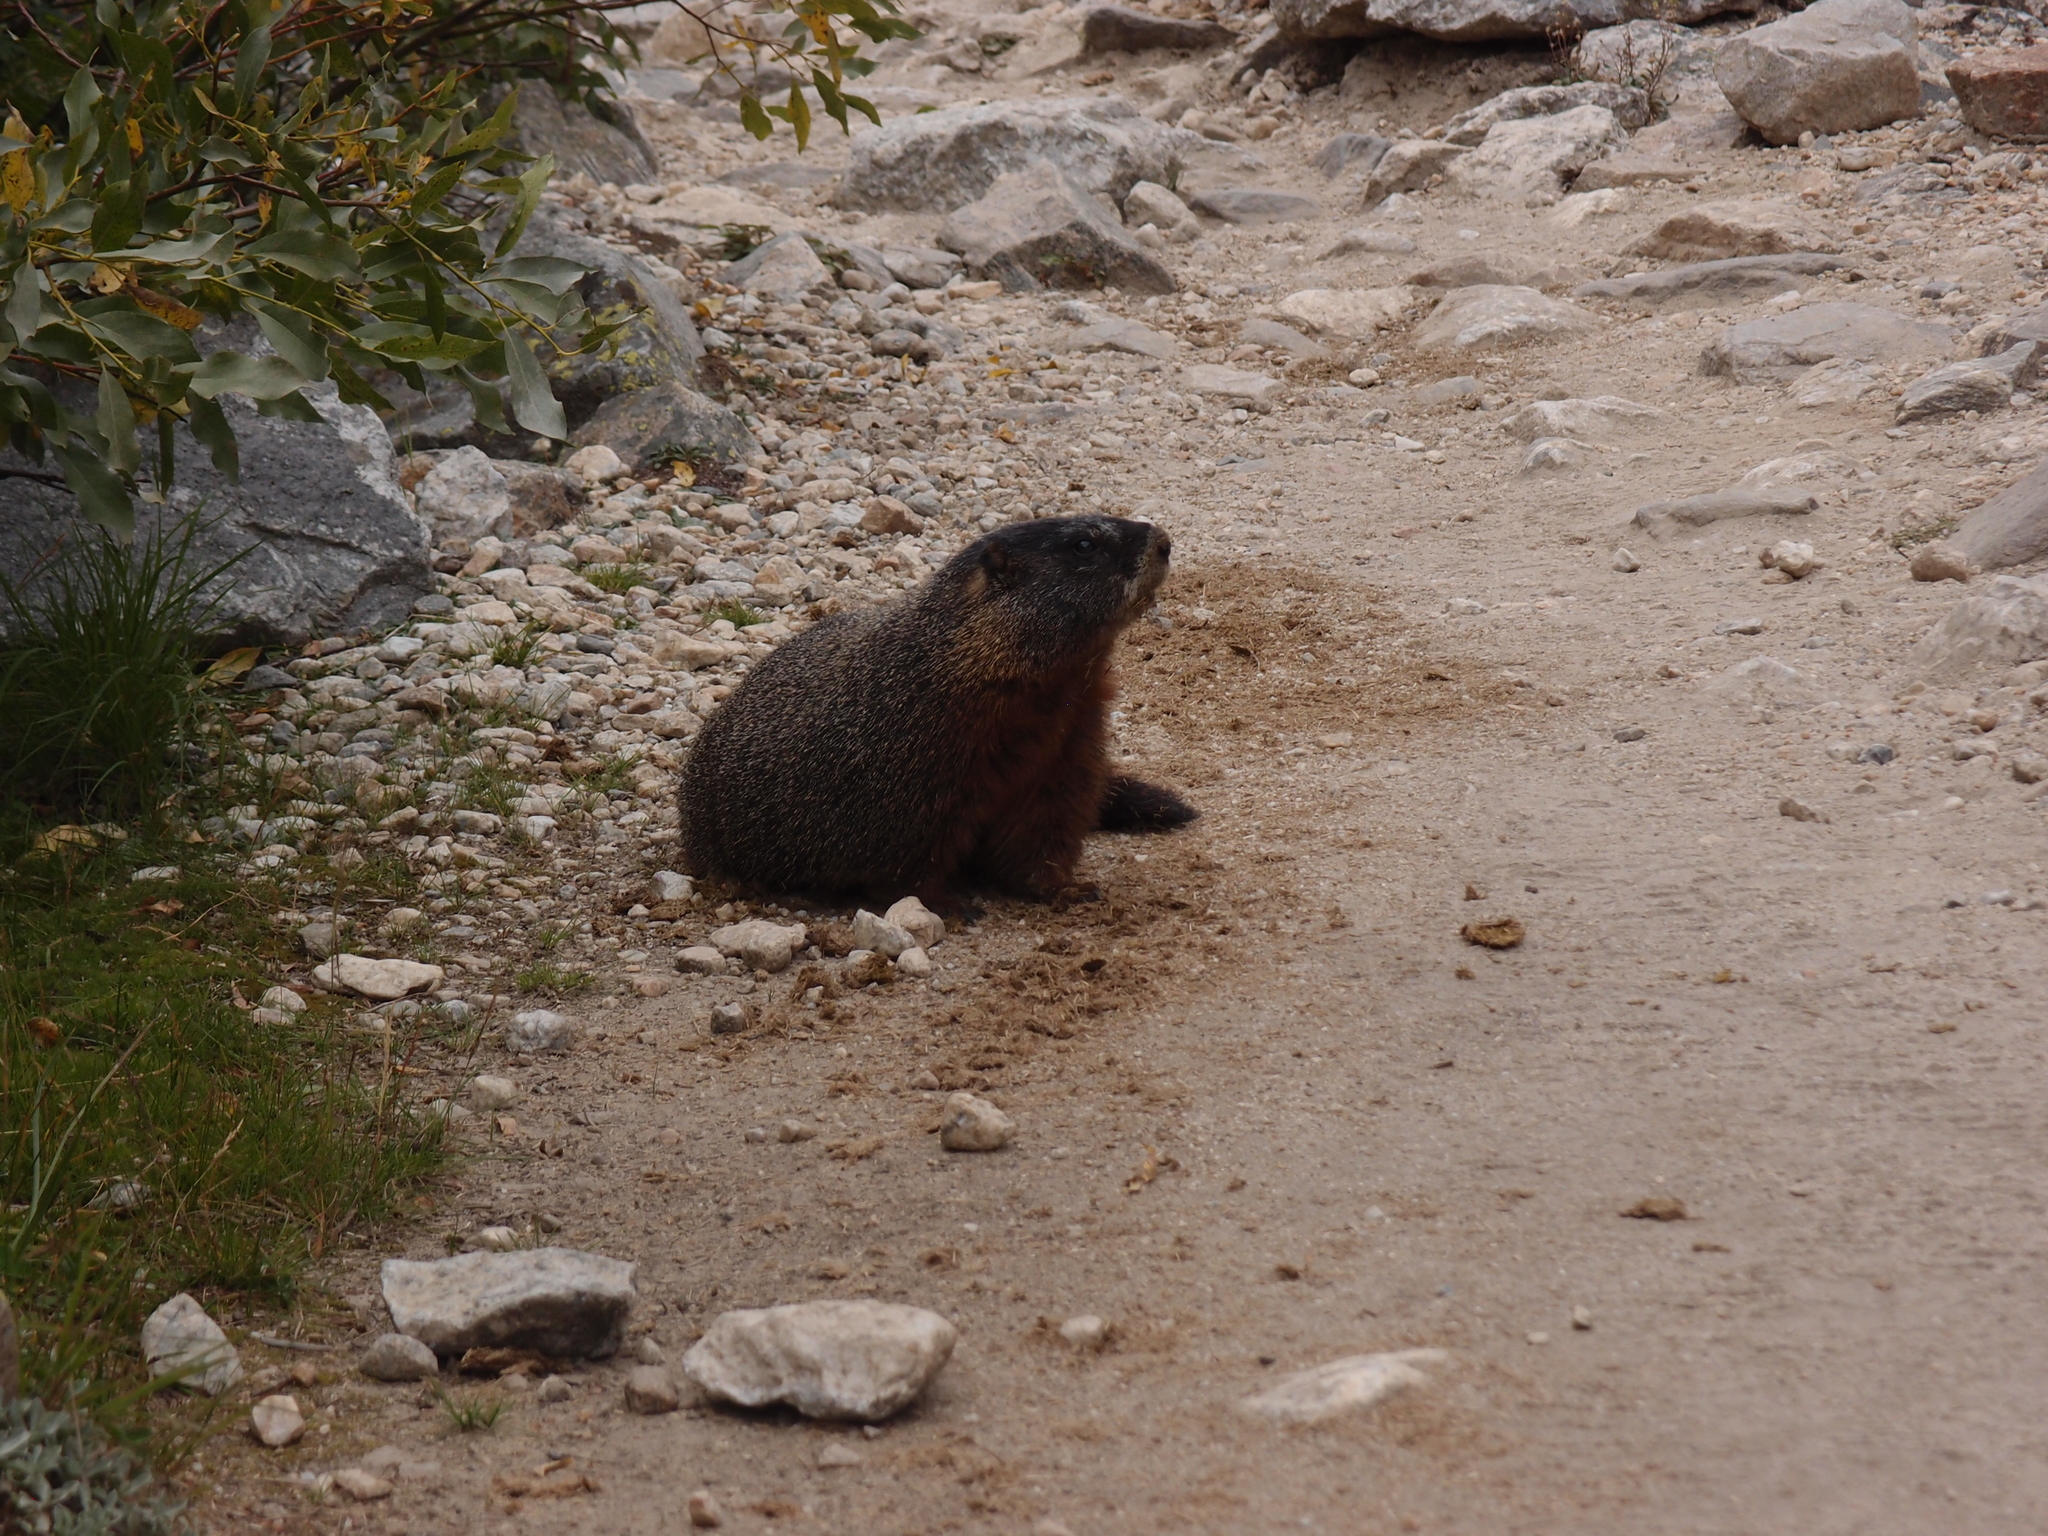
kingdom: Animalia
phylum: Chordata
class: Mammalia
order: Rodentia
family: Sciuridae
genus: Marmota
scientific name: Marmota flaviventris
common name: Yellow-bellied marmot
